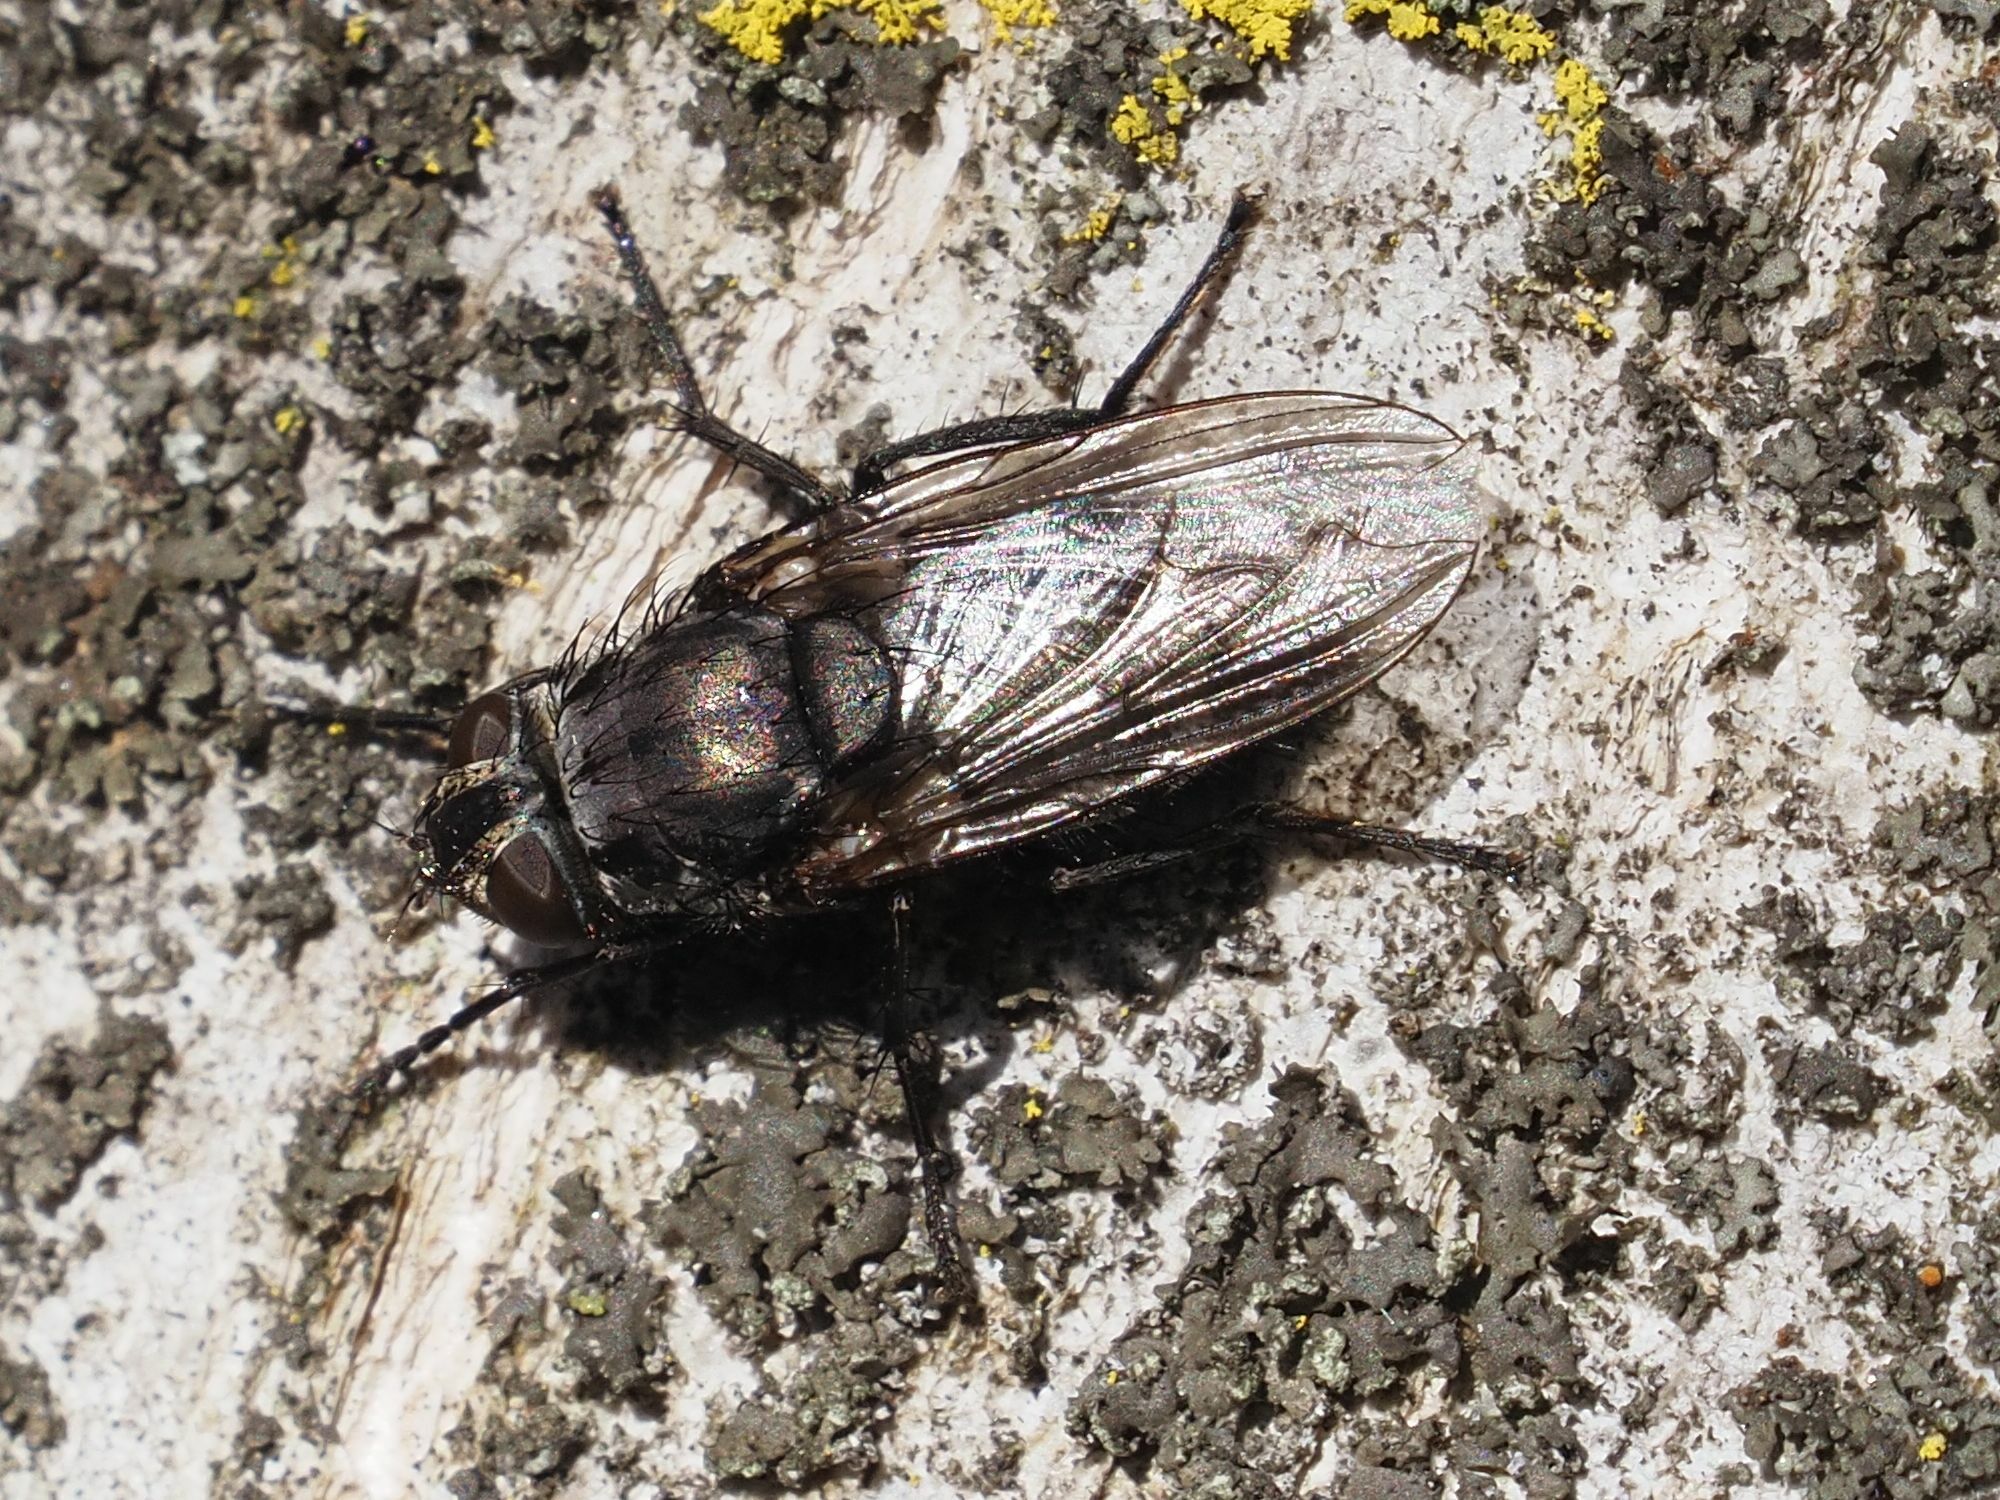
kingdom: Animalia
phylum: Arthropoda
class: Insecta
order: Diptera
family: Polleniidae
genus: Pollenia
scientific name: Pollenia vagabunda
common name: Vagabund cluster fly
